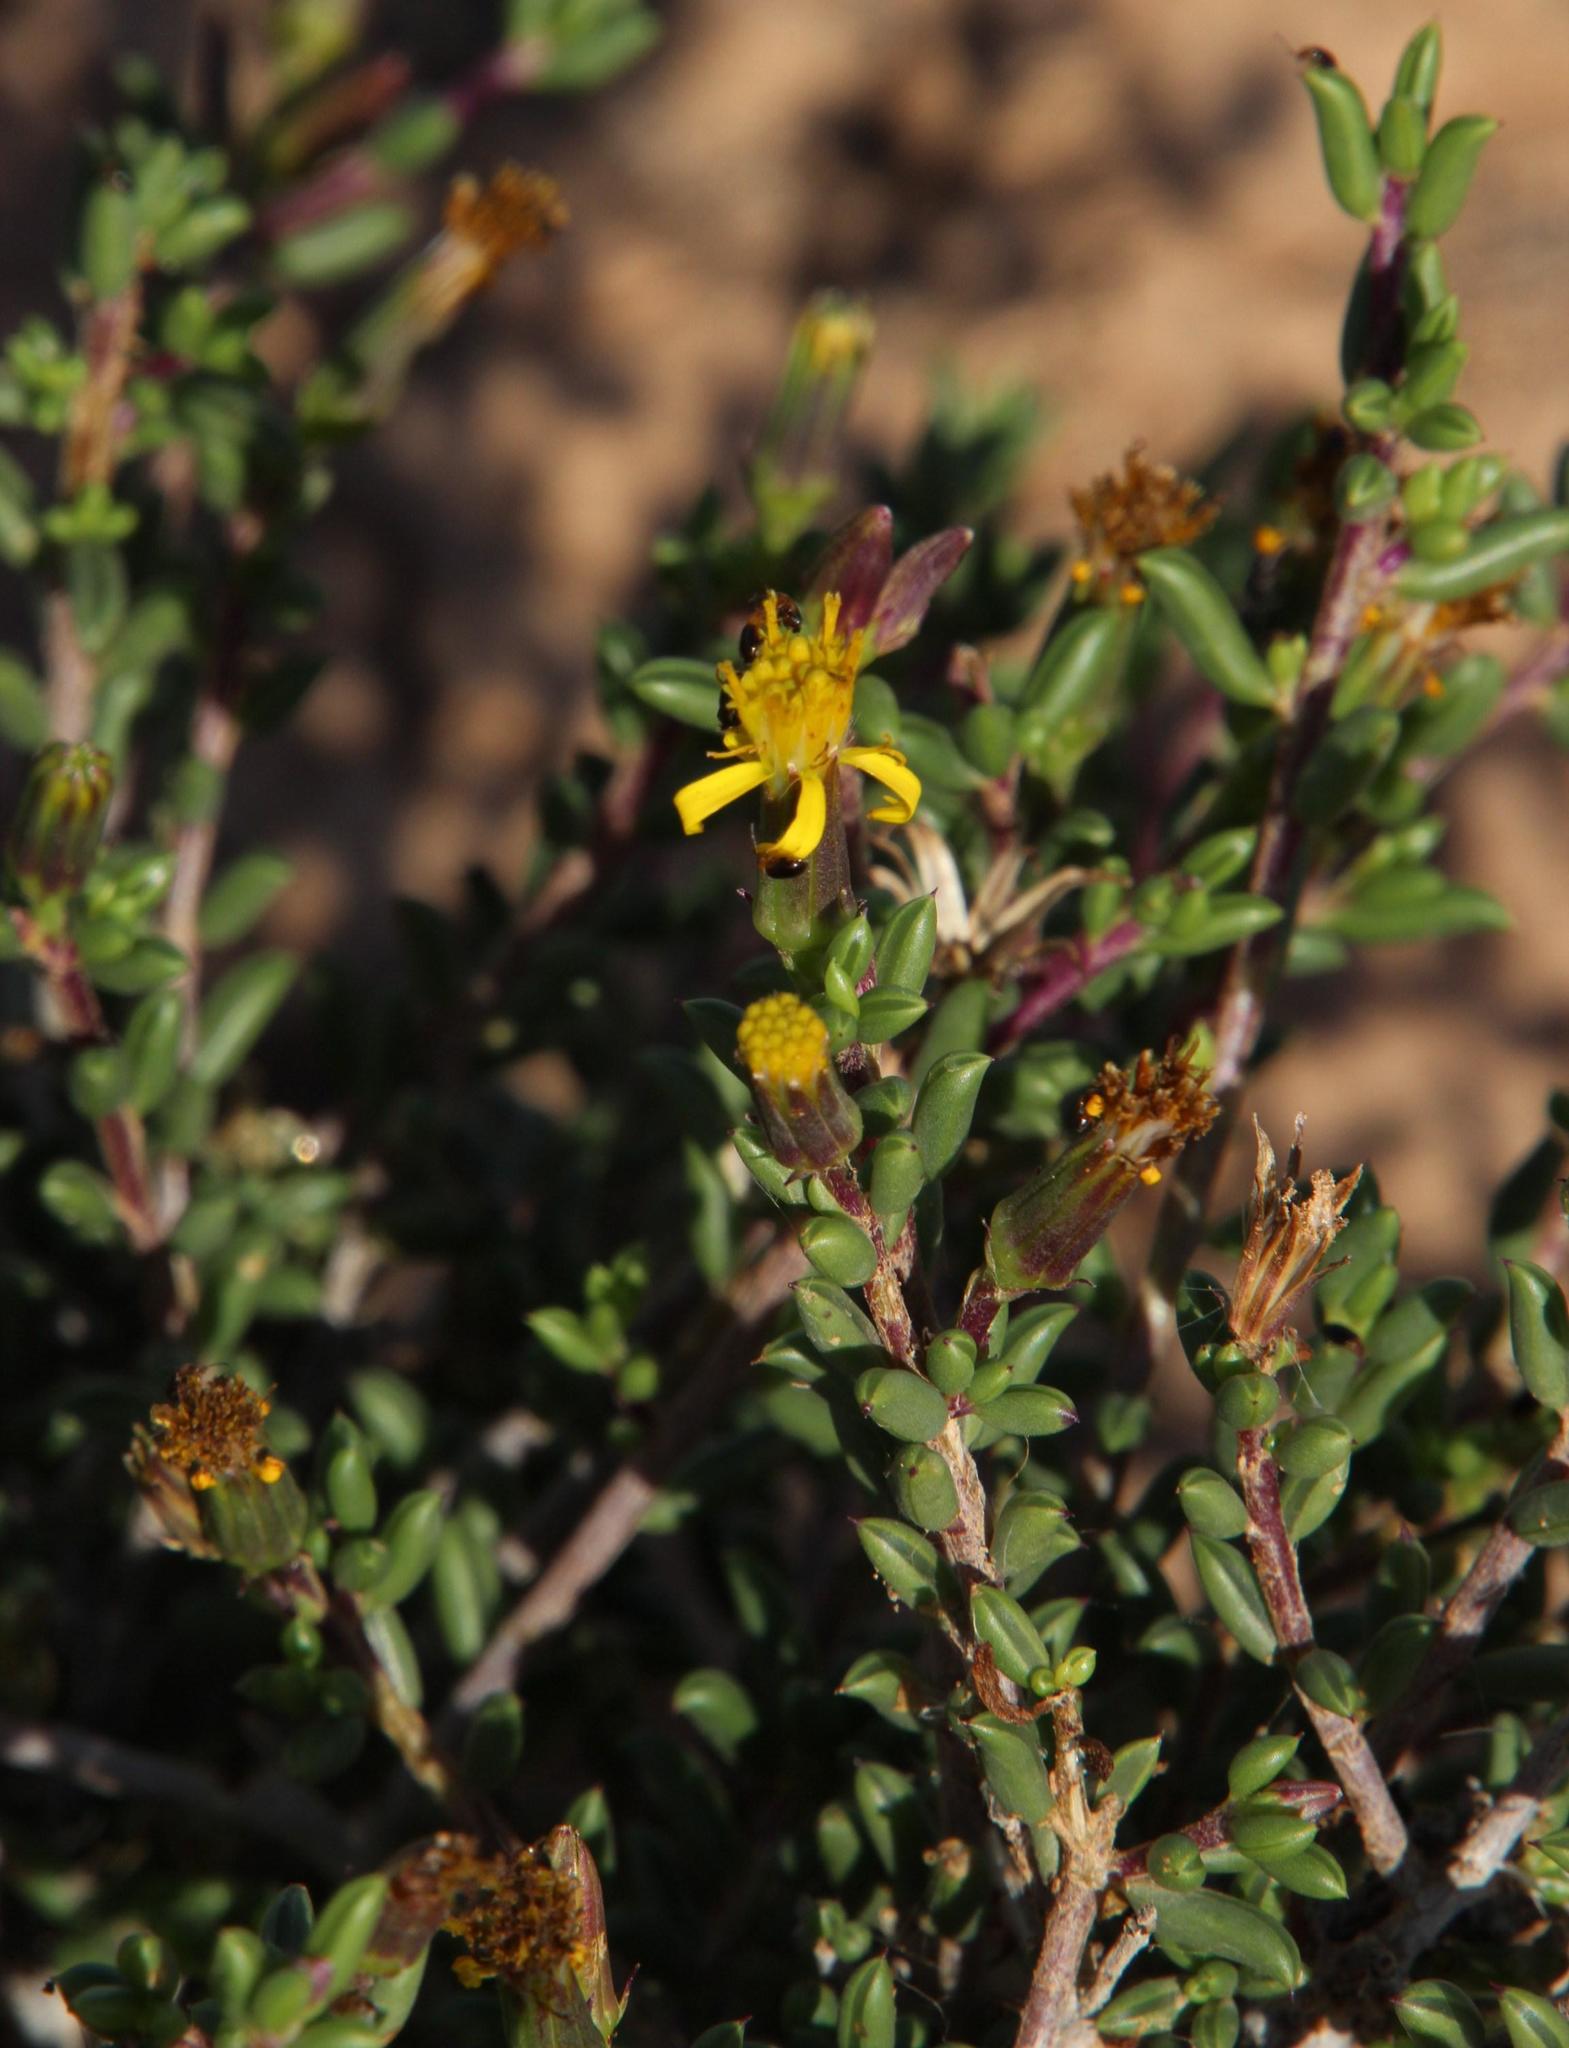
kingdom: Plantae
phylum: Tracheophyta
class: Magnoliopsida
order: Asterales
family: Asteraceae
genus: Senecio
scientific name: Senecio acutifolius
